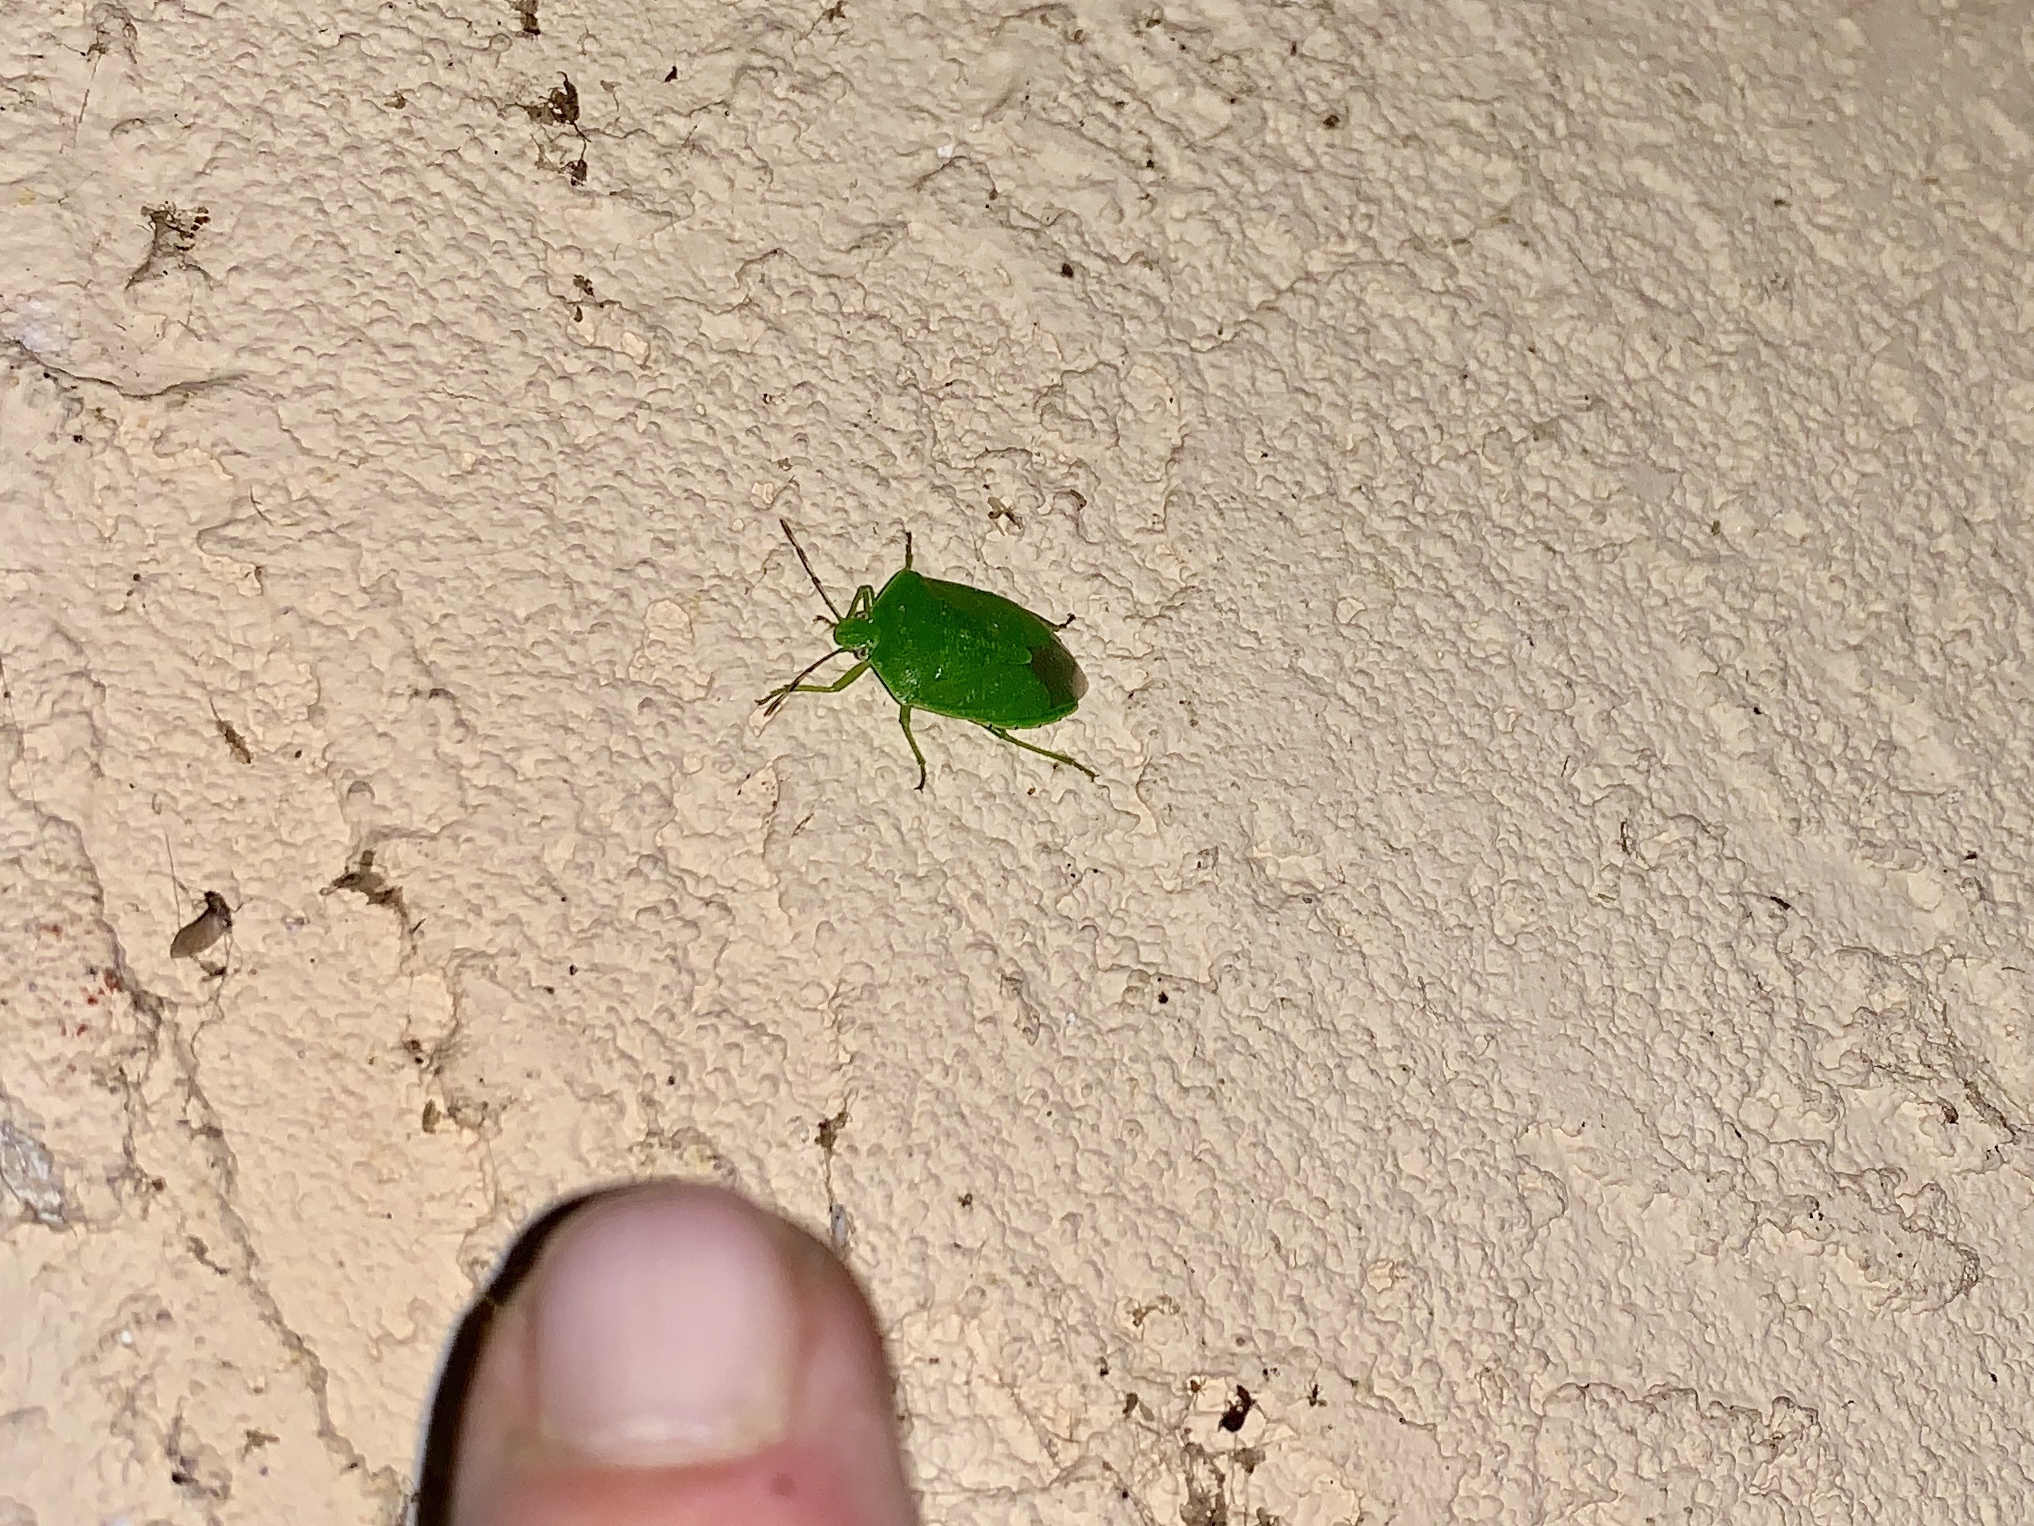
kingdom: Animalia
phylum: Arthropoda
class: Insecta
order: Hemiptera
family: Pentatomidae
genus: Chinavia
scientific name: Chinavia hilaris
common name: Green stink bug
